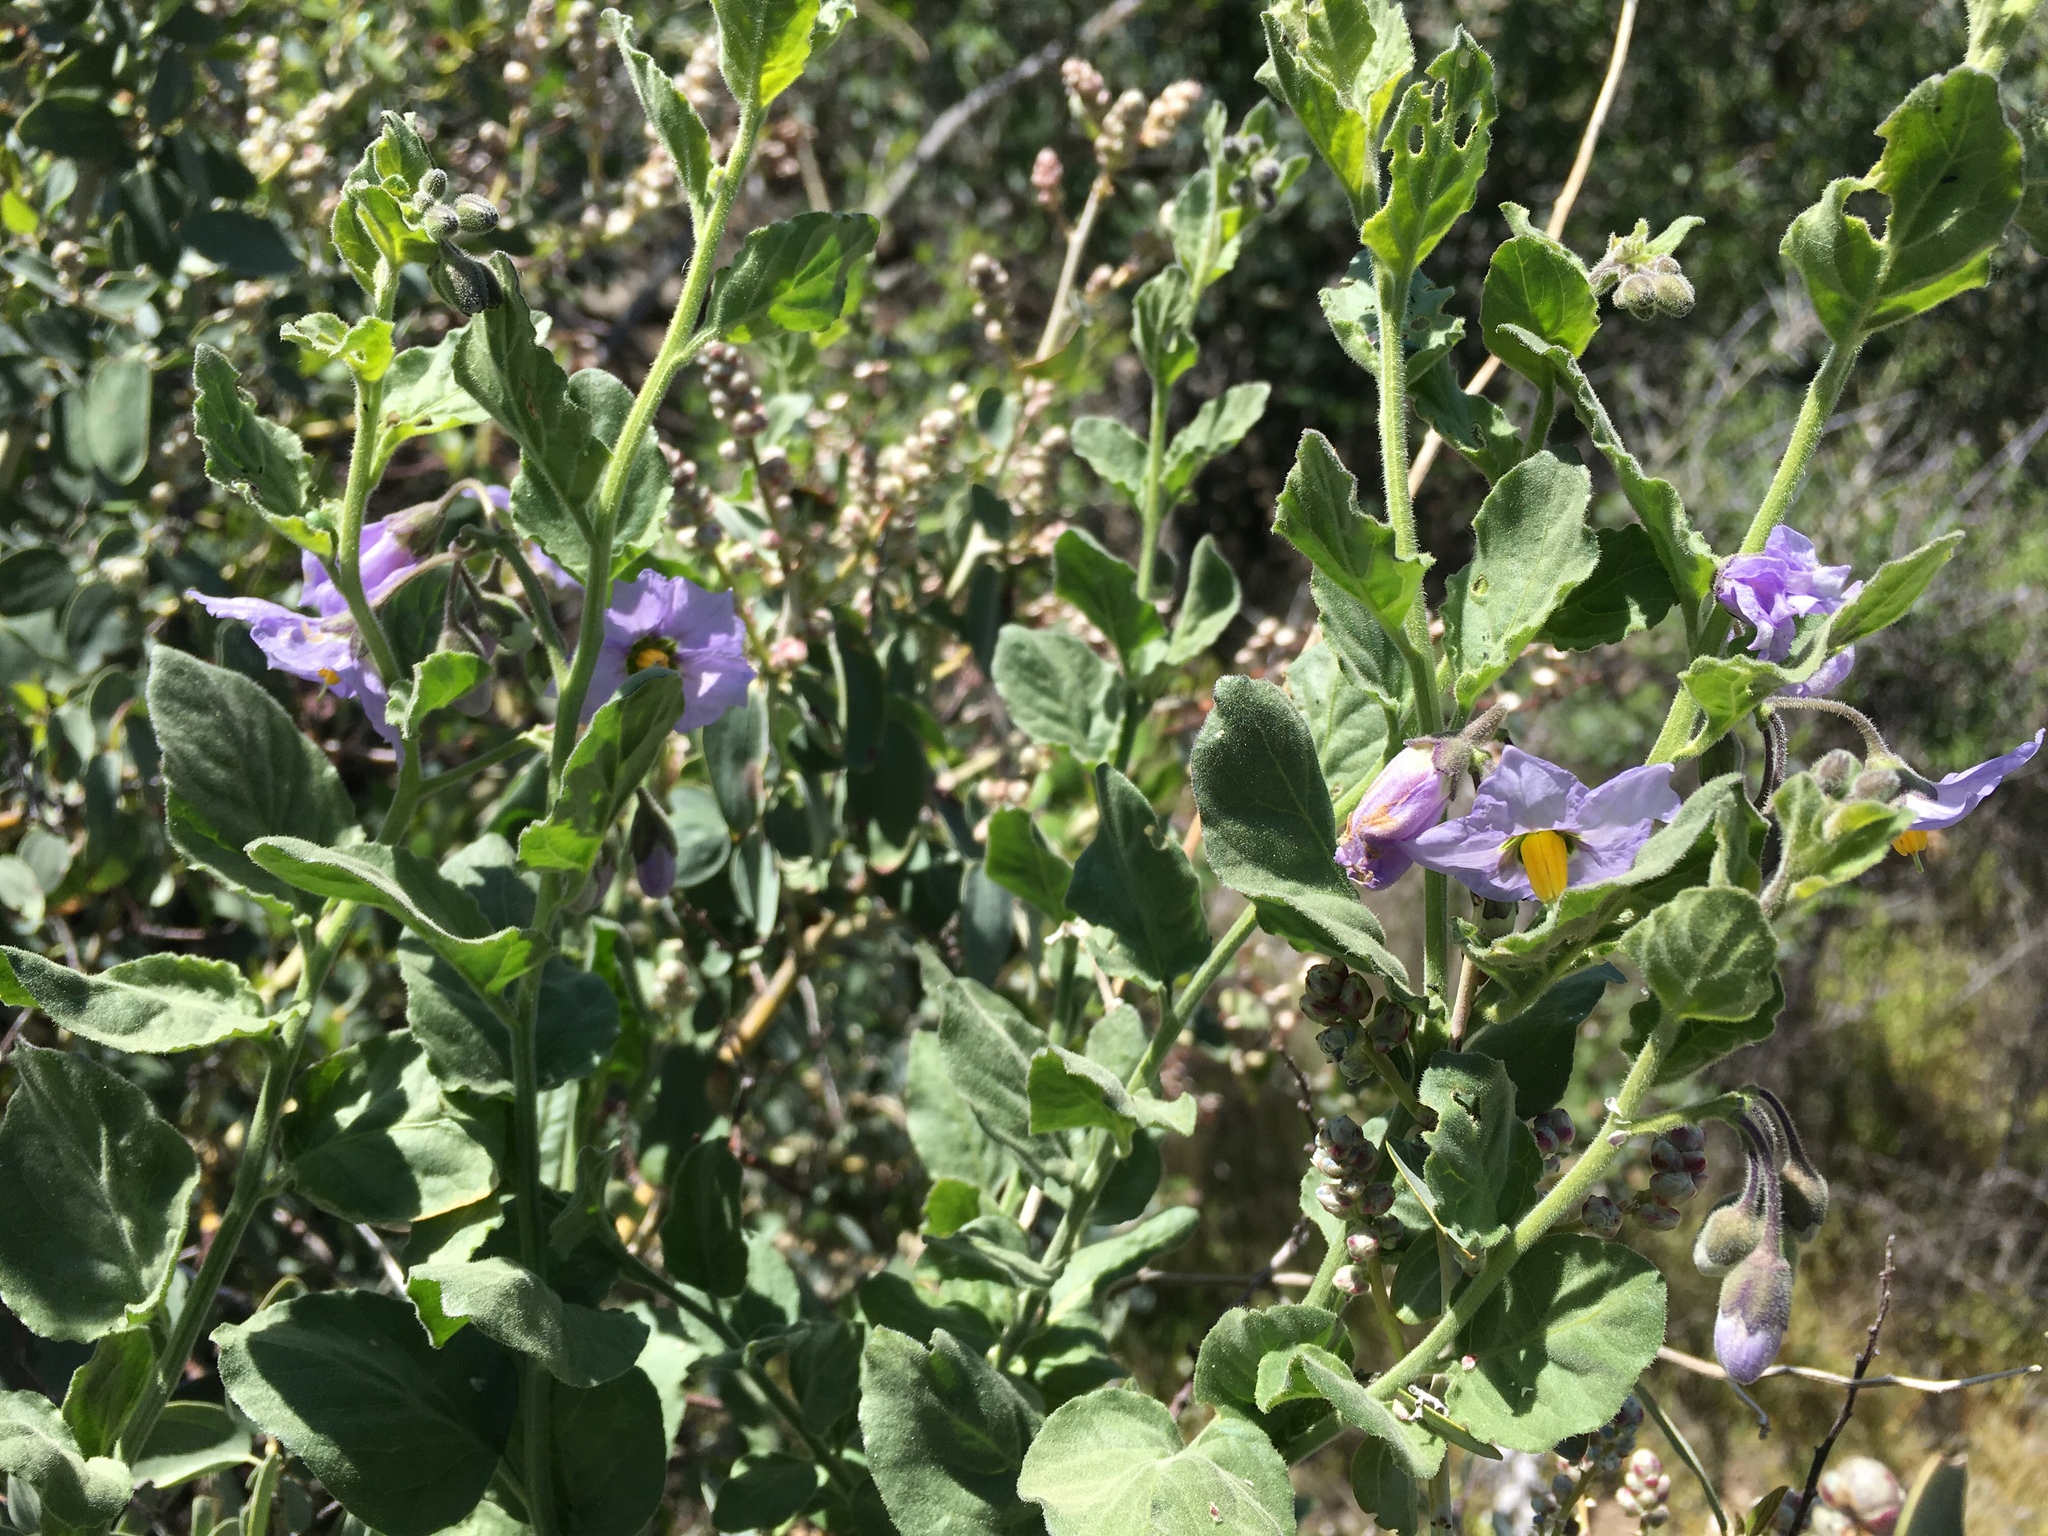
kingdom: Plantae
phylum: Tracheophyta
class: Magnoliopsida
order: Solanales
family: Solanaceae
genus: Solanum
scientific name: Solanum umbelliferum
